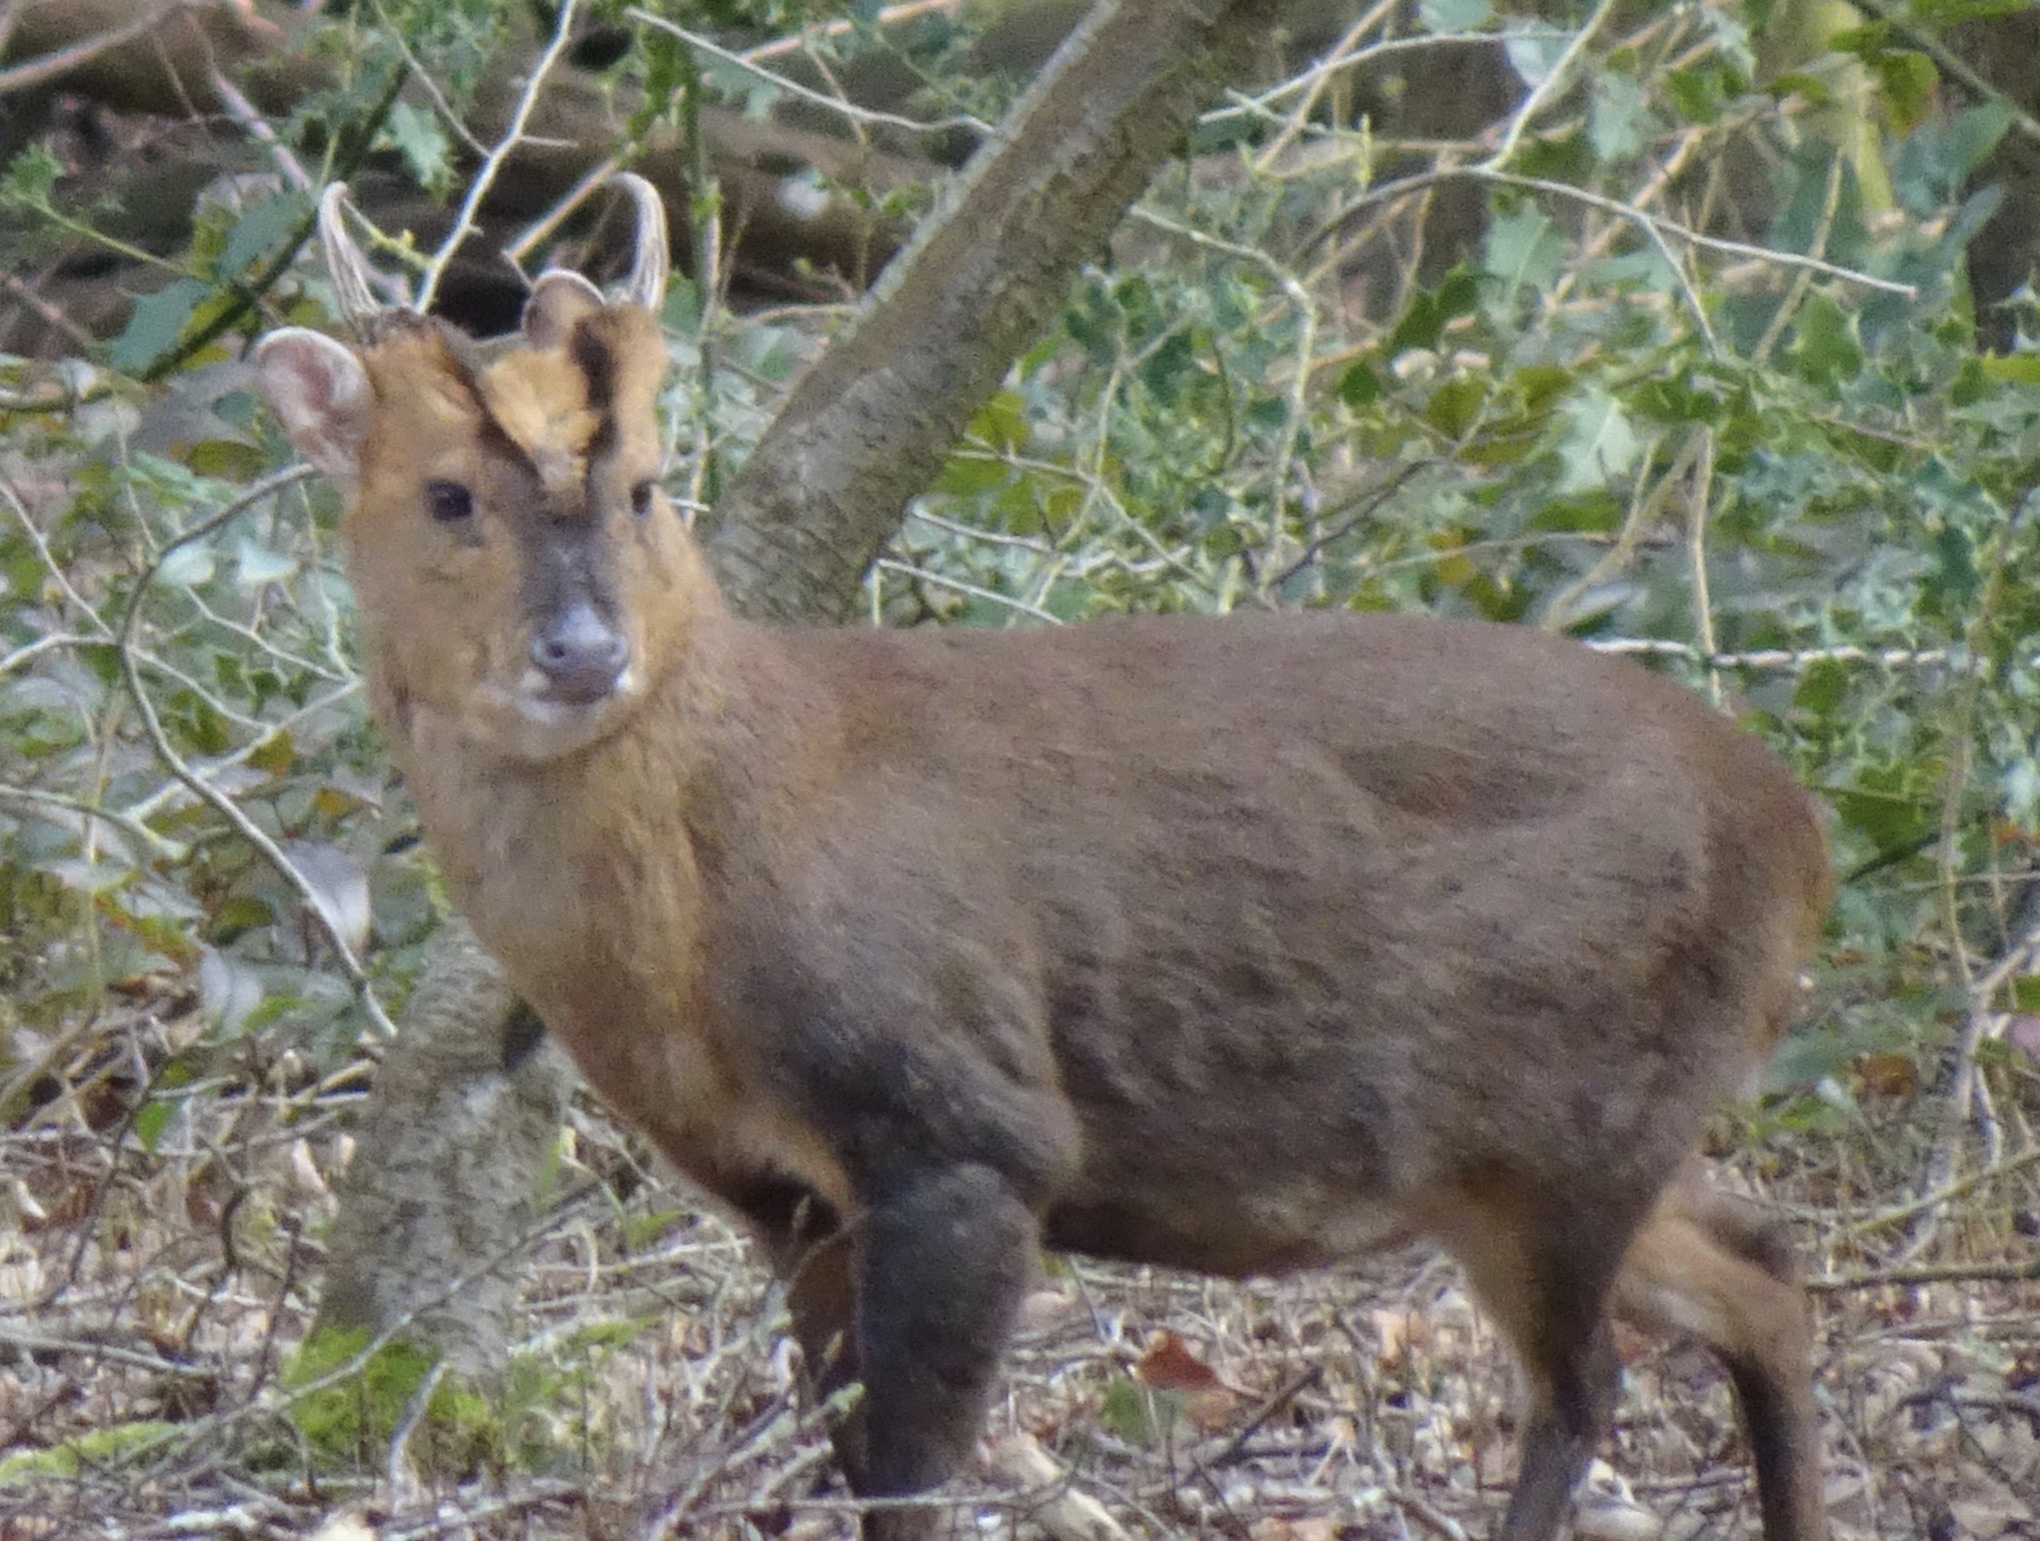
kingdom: Animalia
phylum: Chordata
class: Mammalia
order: Artiodactyla
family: Cervidae
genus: Muntiacus
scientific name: Muntiacus reevesi
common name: Reeves' muntjac
